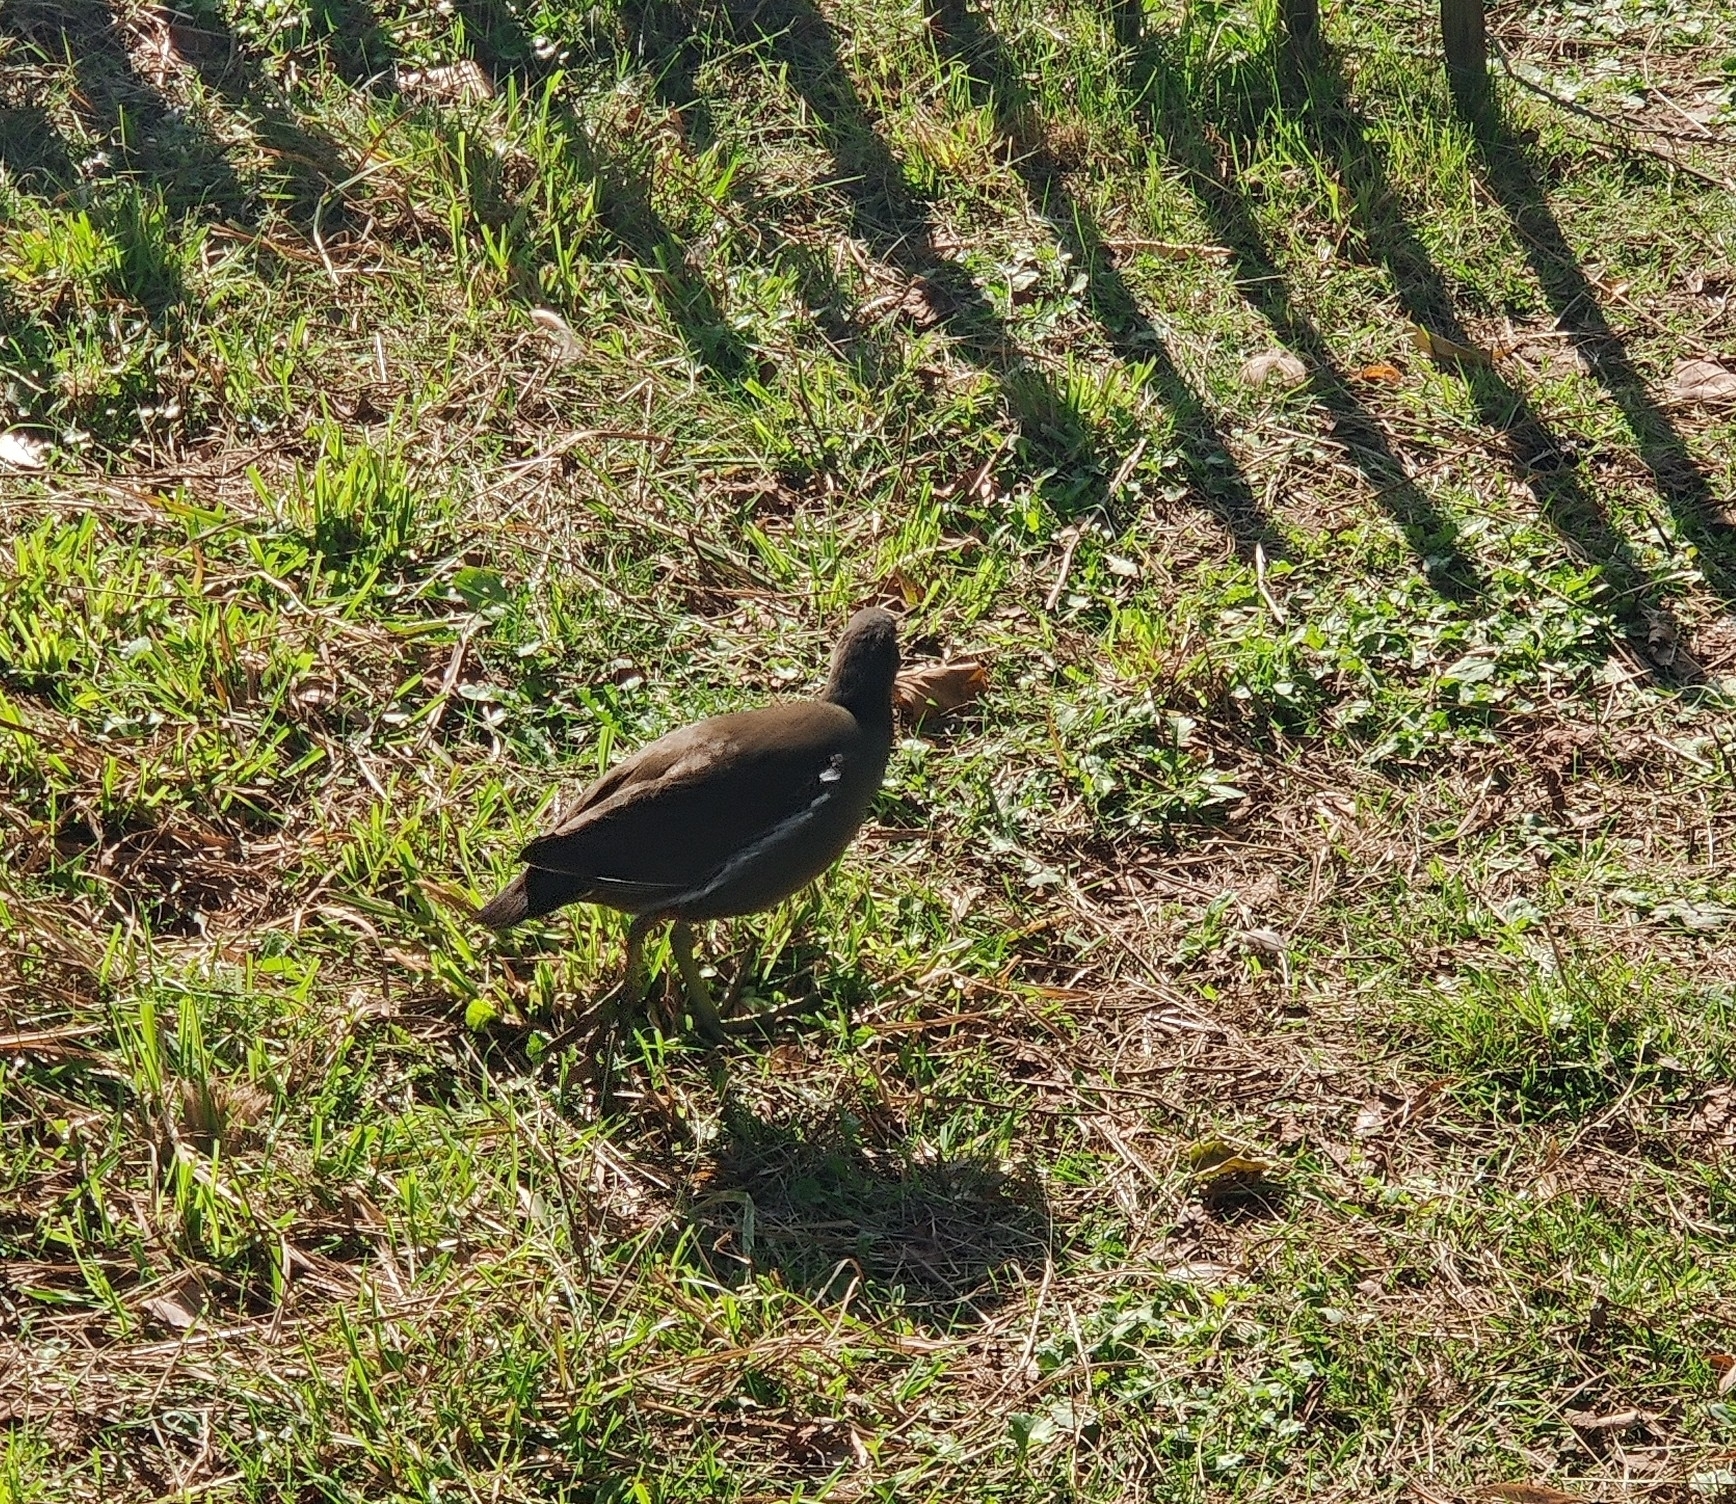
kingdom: Animalia
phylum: Chordata
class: Aves
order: Gruiformes
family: Rallidae
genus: Gallinula
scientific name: Gallinula chloropus
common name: Common moorhen
